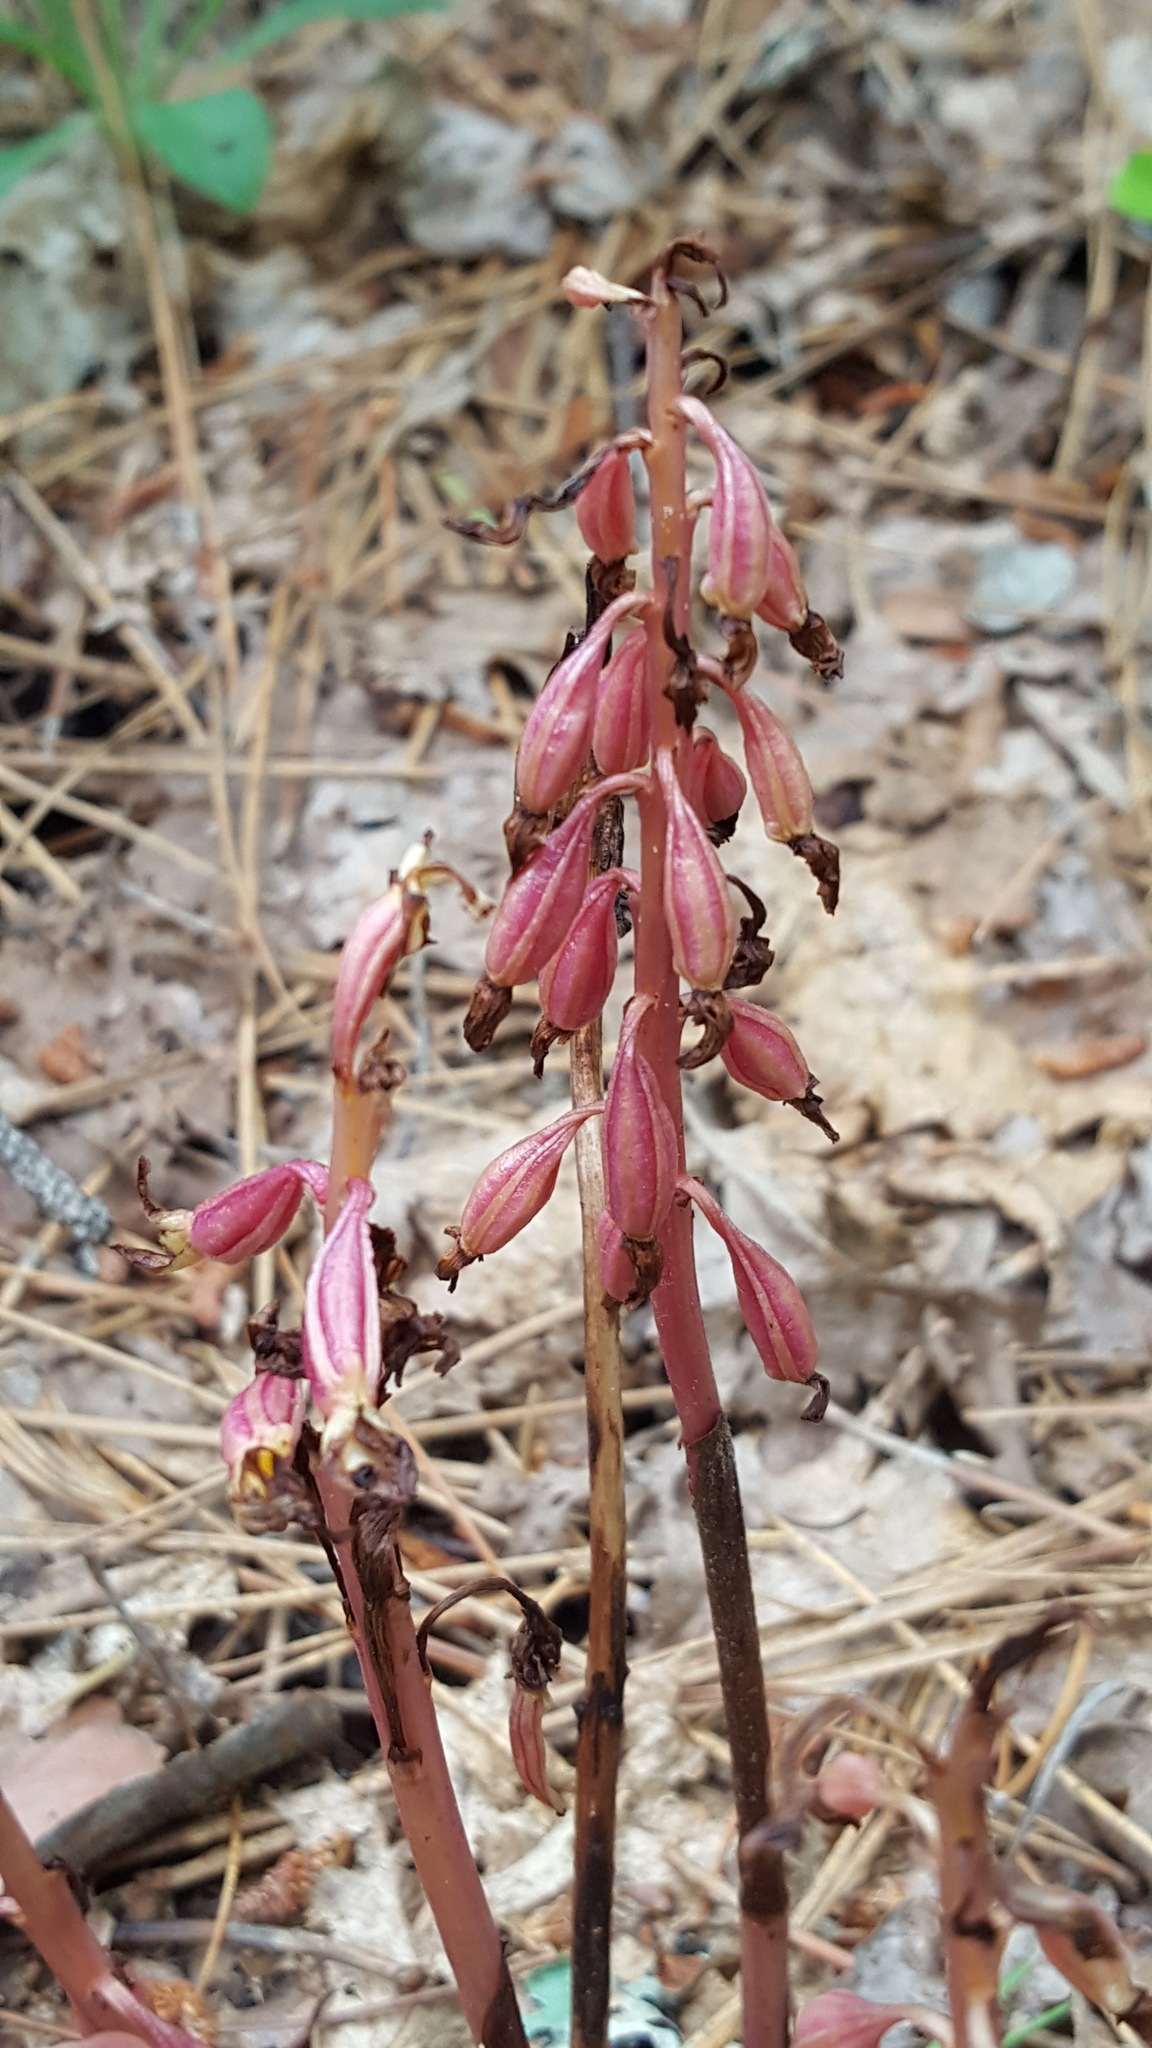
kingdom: Plantae
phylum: Tracheophyta
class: Liliopsida
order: Asparagales
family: Orchidaceae
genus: Corallorhiza
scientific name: Corallorhiza maculata
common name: Spotted coralroot
